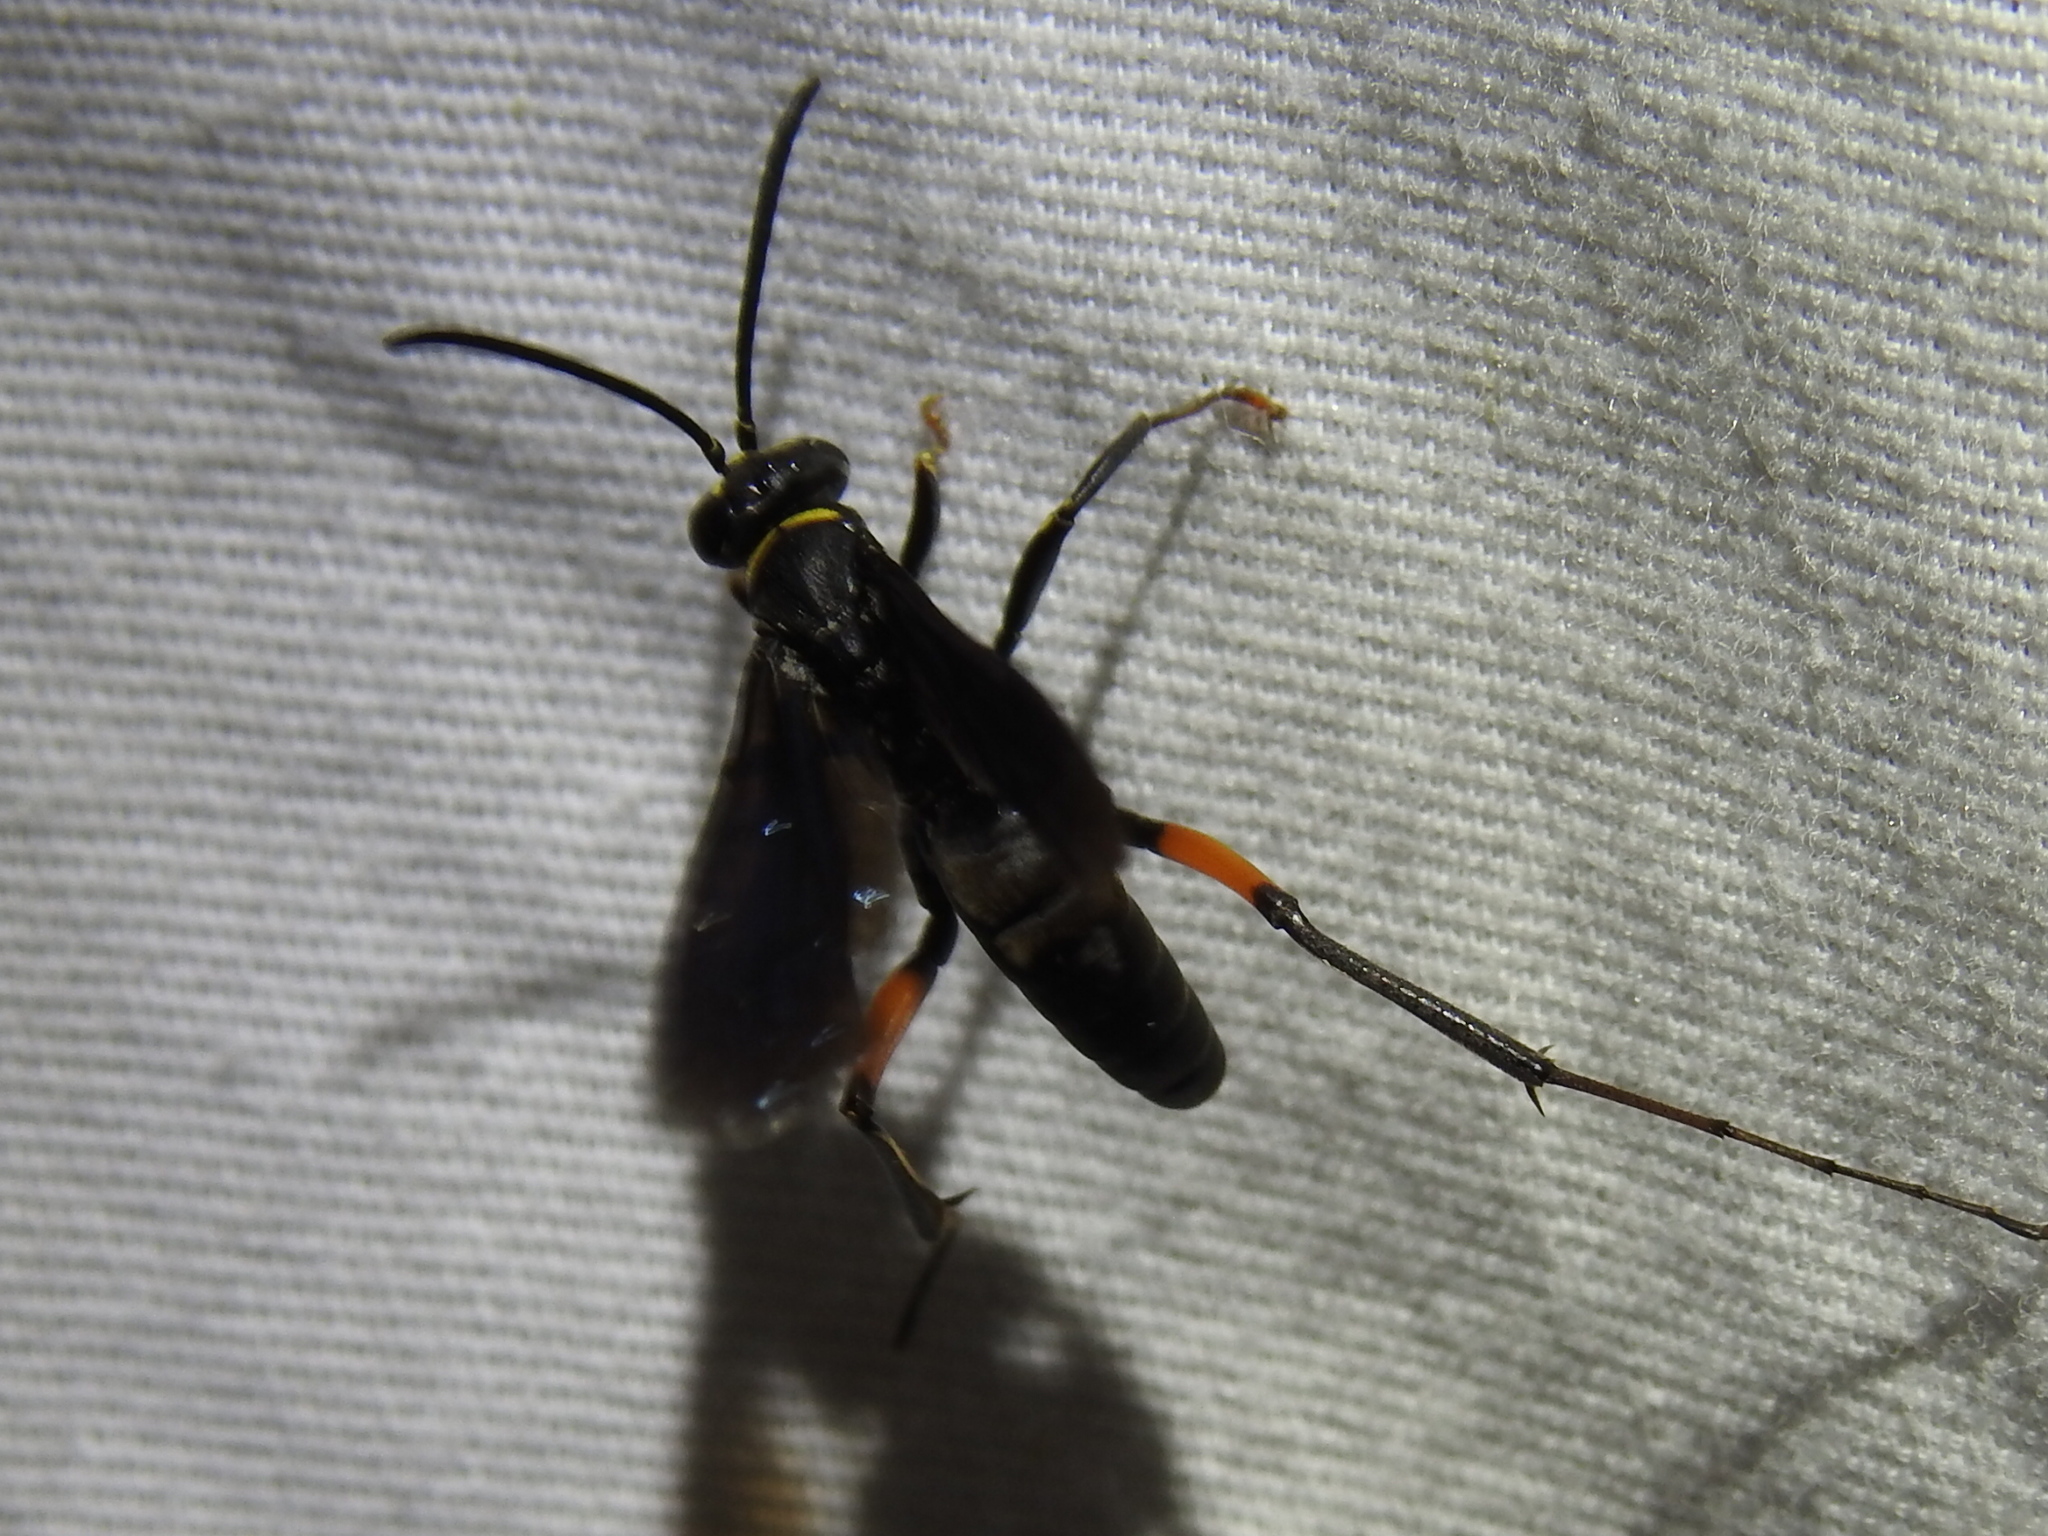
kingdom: Animalia
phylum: Arthropoda
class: Insecta
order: Hymenoptera
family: Pompilidae
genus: Ceropales
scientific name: Ceropales bipunctata
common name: Two-speckled cuckoo spider wasp
